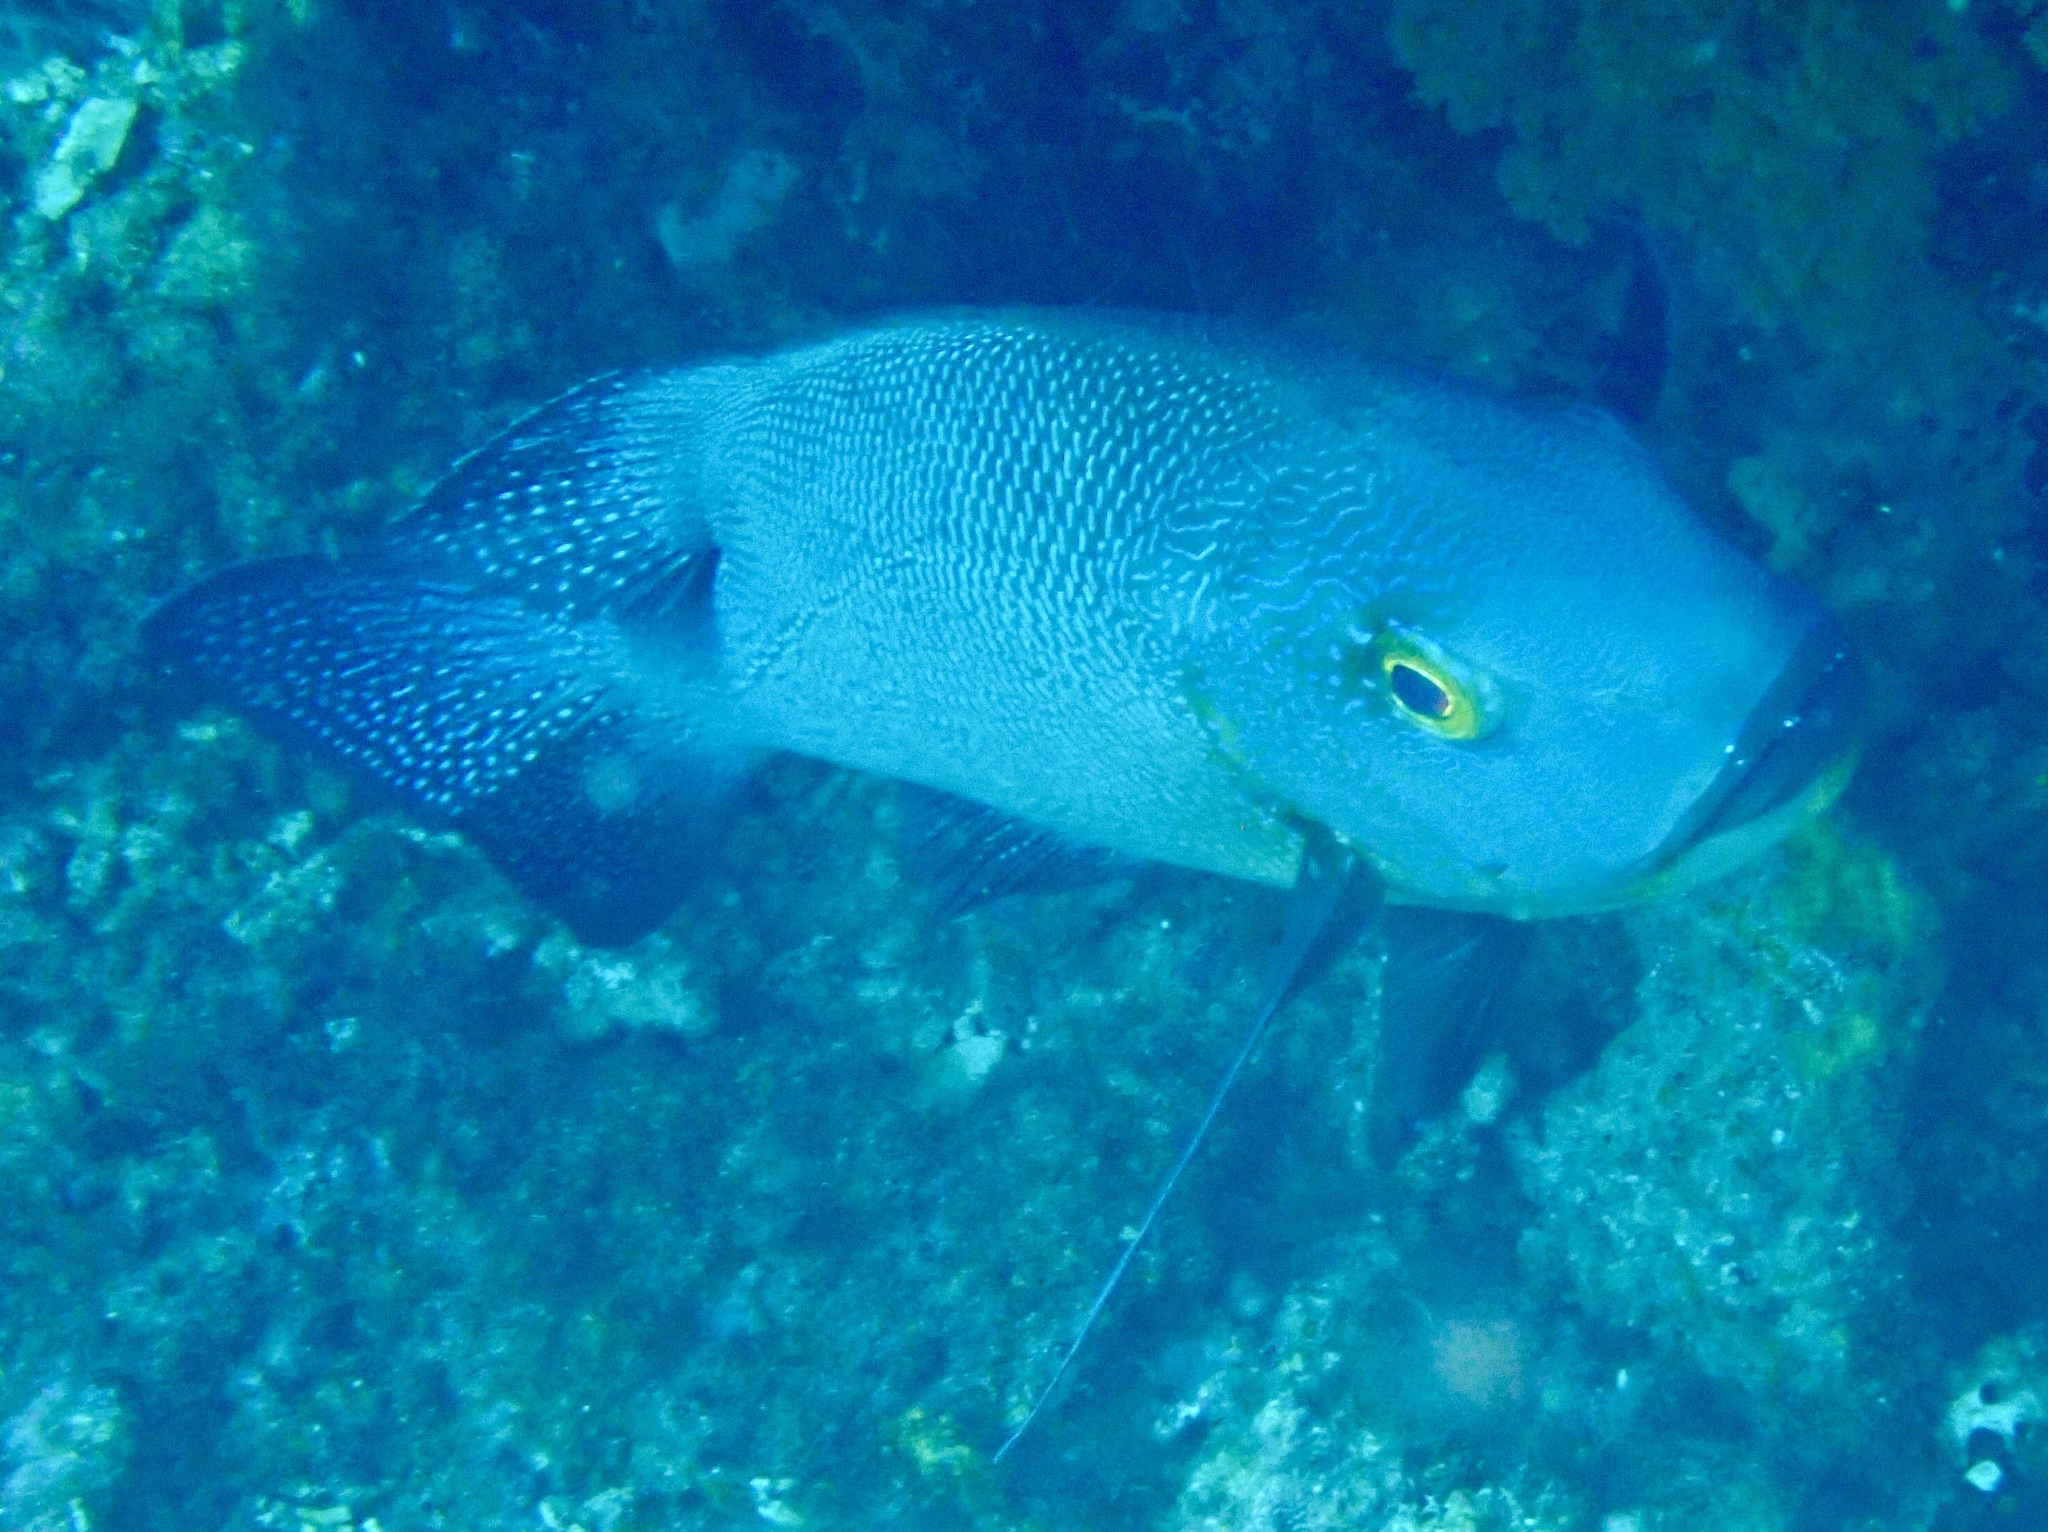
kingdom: Animalia
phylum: Chordata
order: Perciformes
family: Lutjanidae
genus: Macolor
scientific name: Macolor macularis
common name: Midnight snapper
